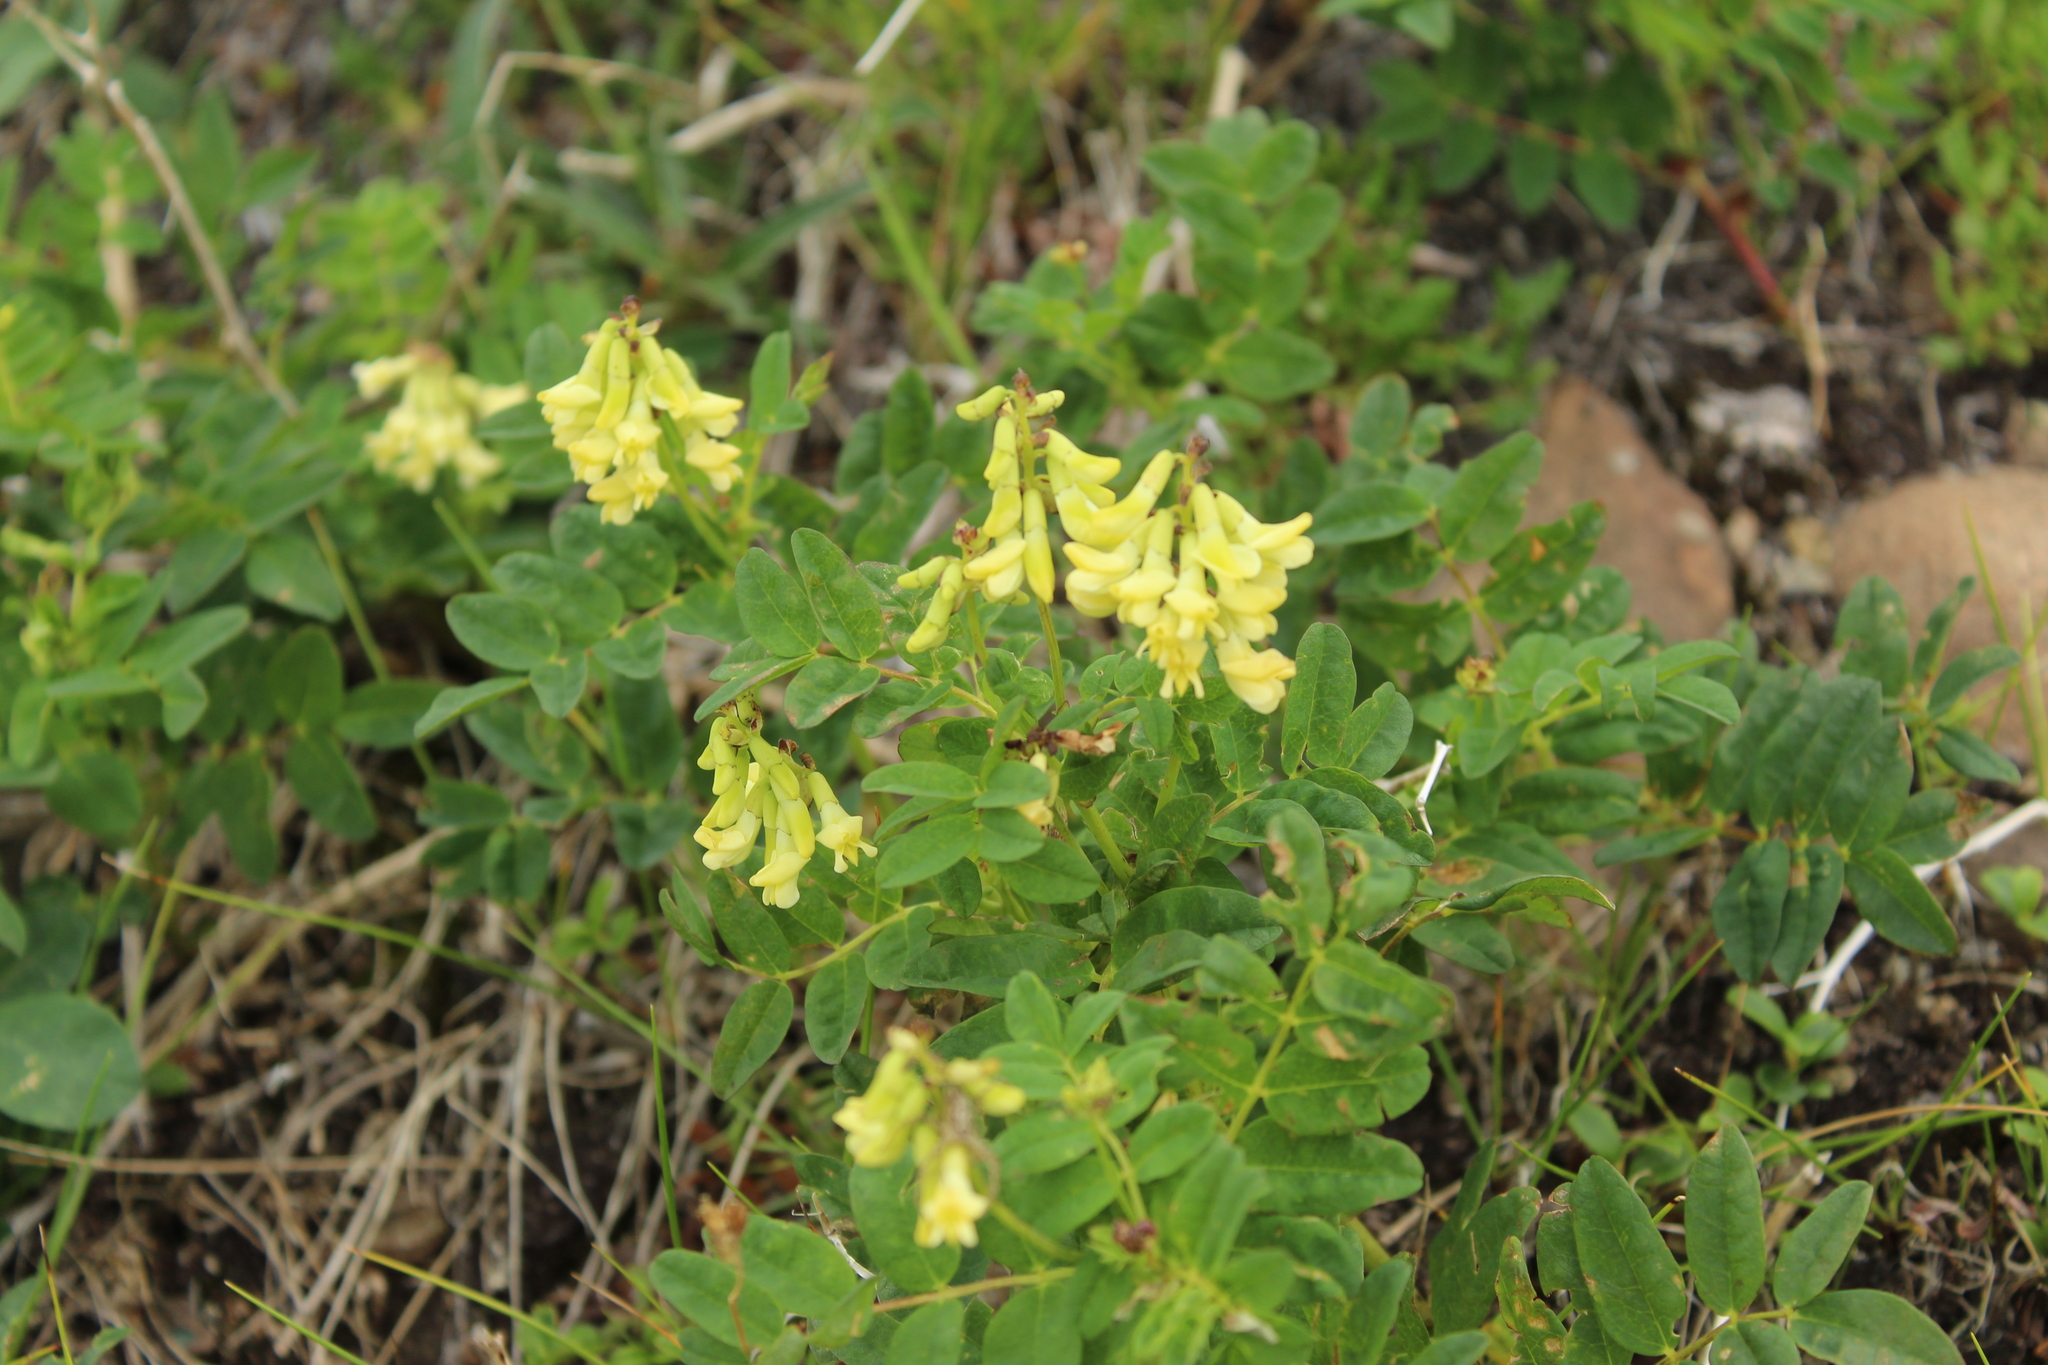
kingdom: Plantae
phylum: Tracheophyta
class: Magnoliopsida
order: Fabales
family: Fabaceae
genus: Astragalus
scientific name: Astragalus umbellatus
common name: Tundra milk-vetch
